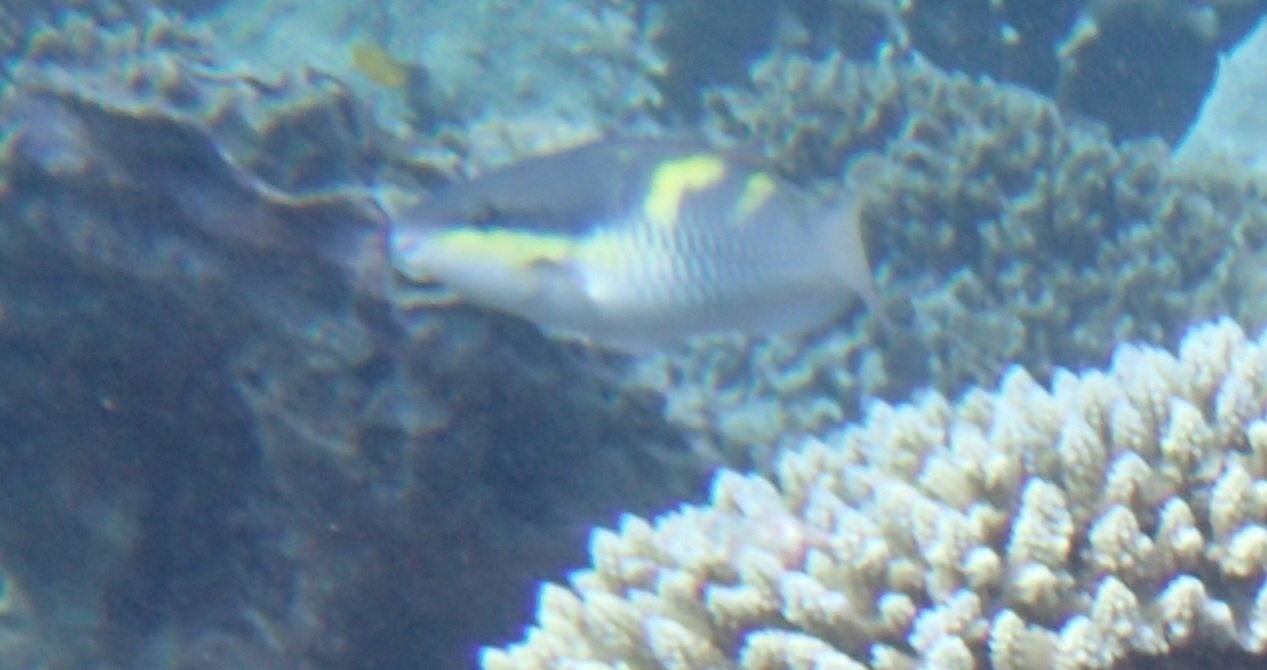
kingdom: Animalia
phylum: Chordata
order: Perciformes
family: Scaridae
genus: Scarus
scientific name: Scarus oviceps
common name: Blue parrotfish
